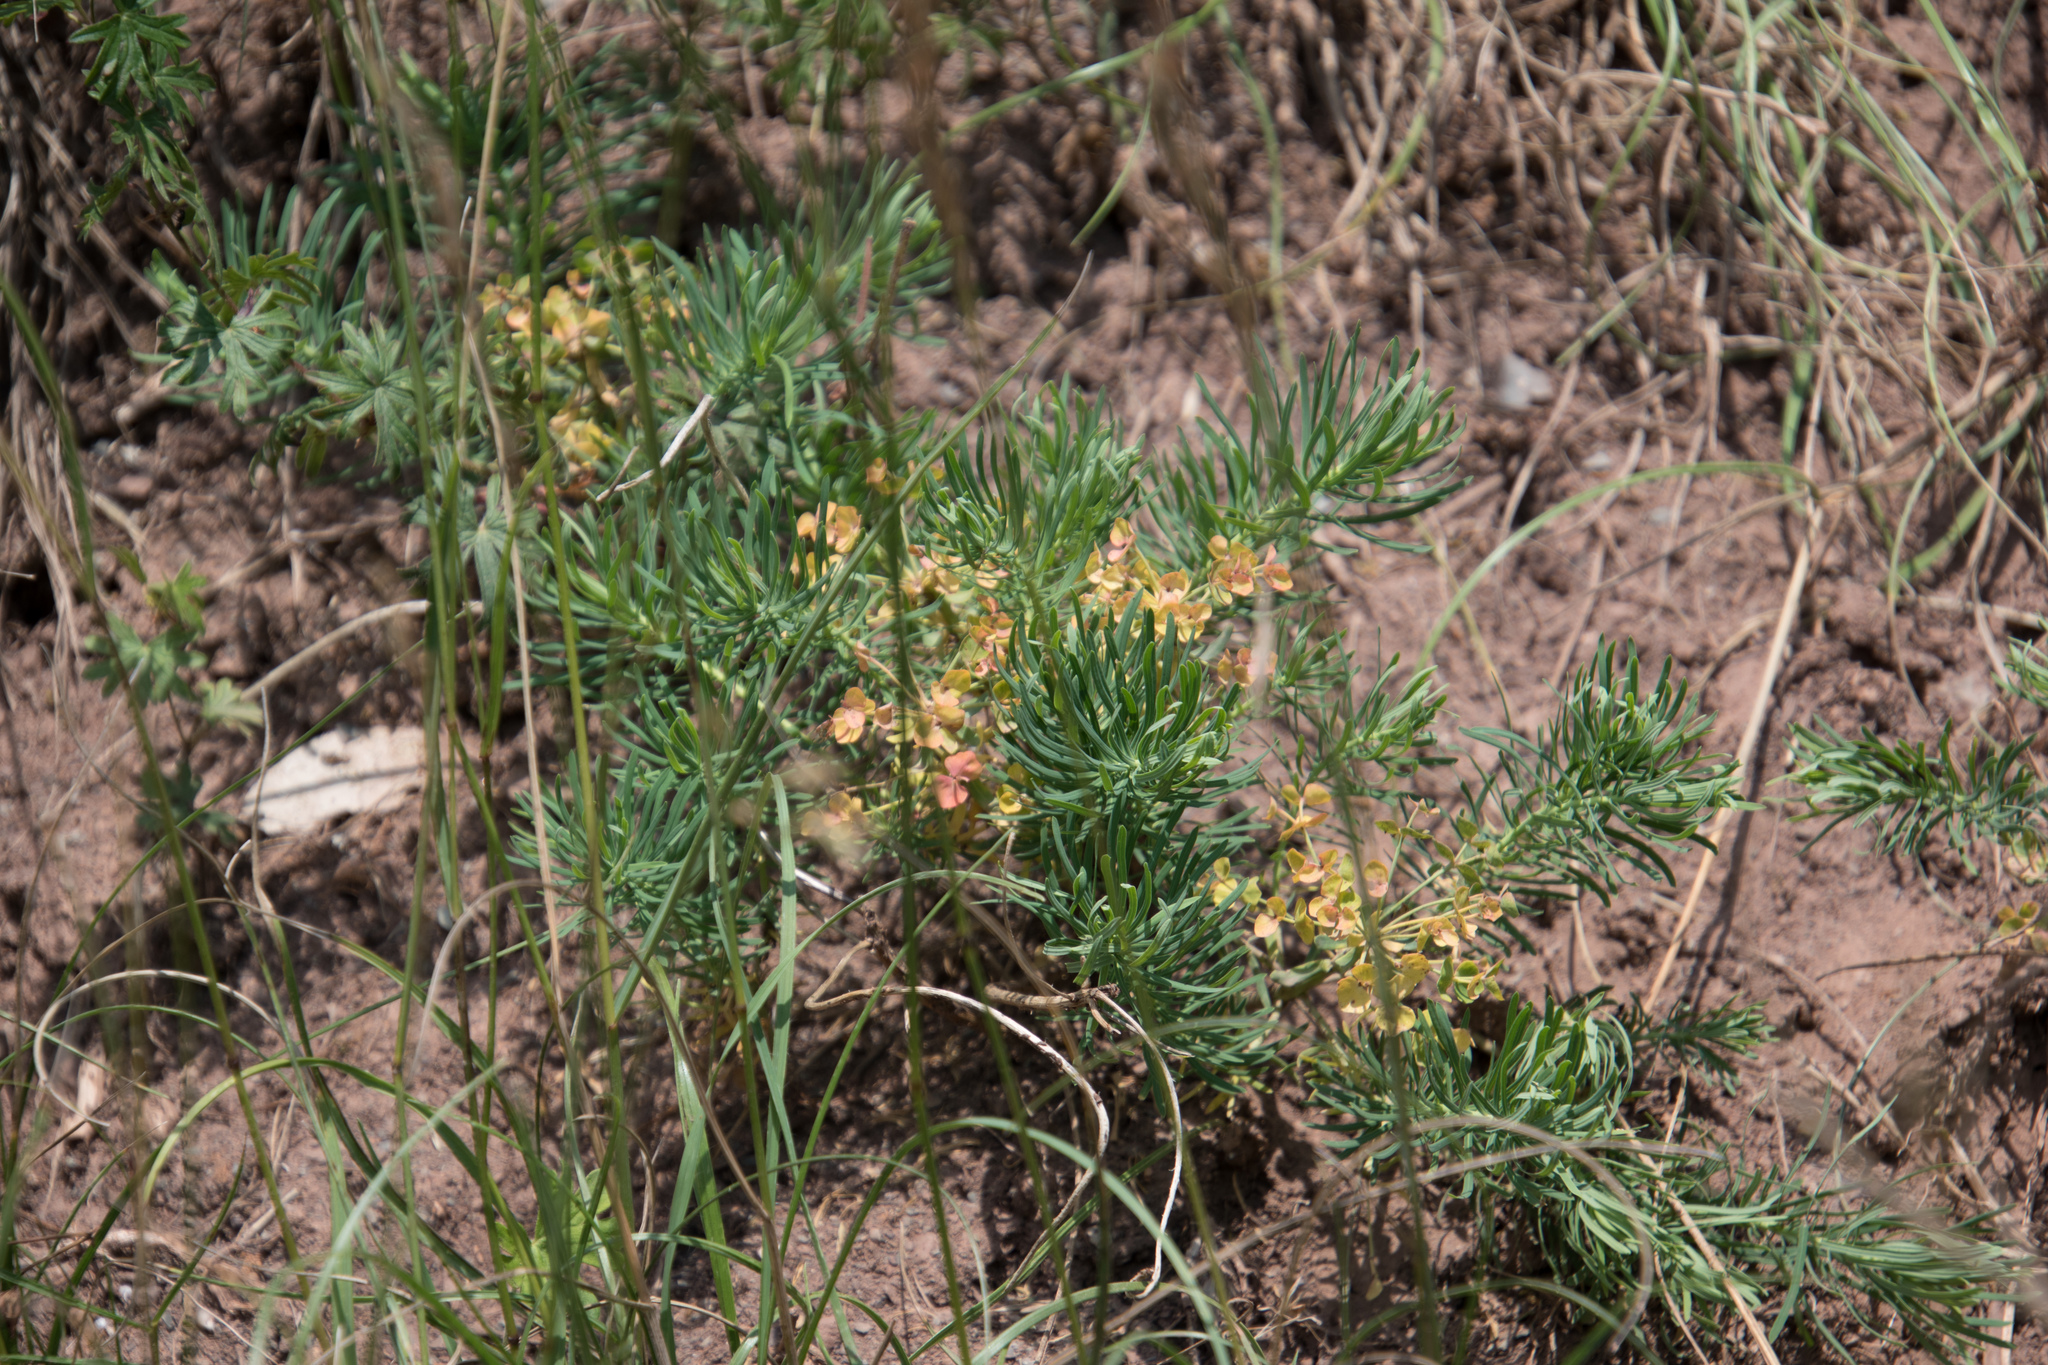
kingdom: Plantae
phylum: Tracheophyta
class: Magnoliopsida
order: Malpighiales
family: Euphorbiaceae
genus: Euphorbia
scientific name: Euphorbia cyparissias
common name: Cypress spurge
